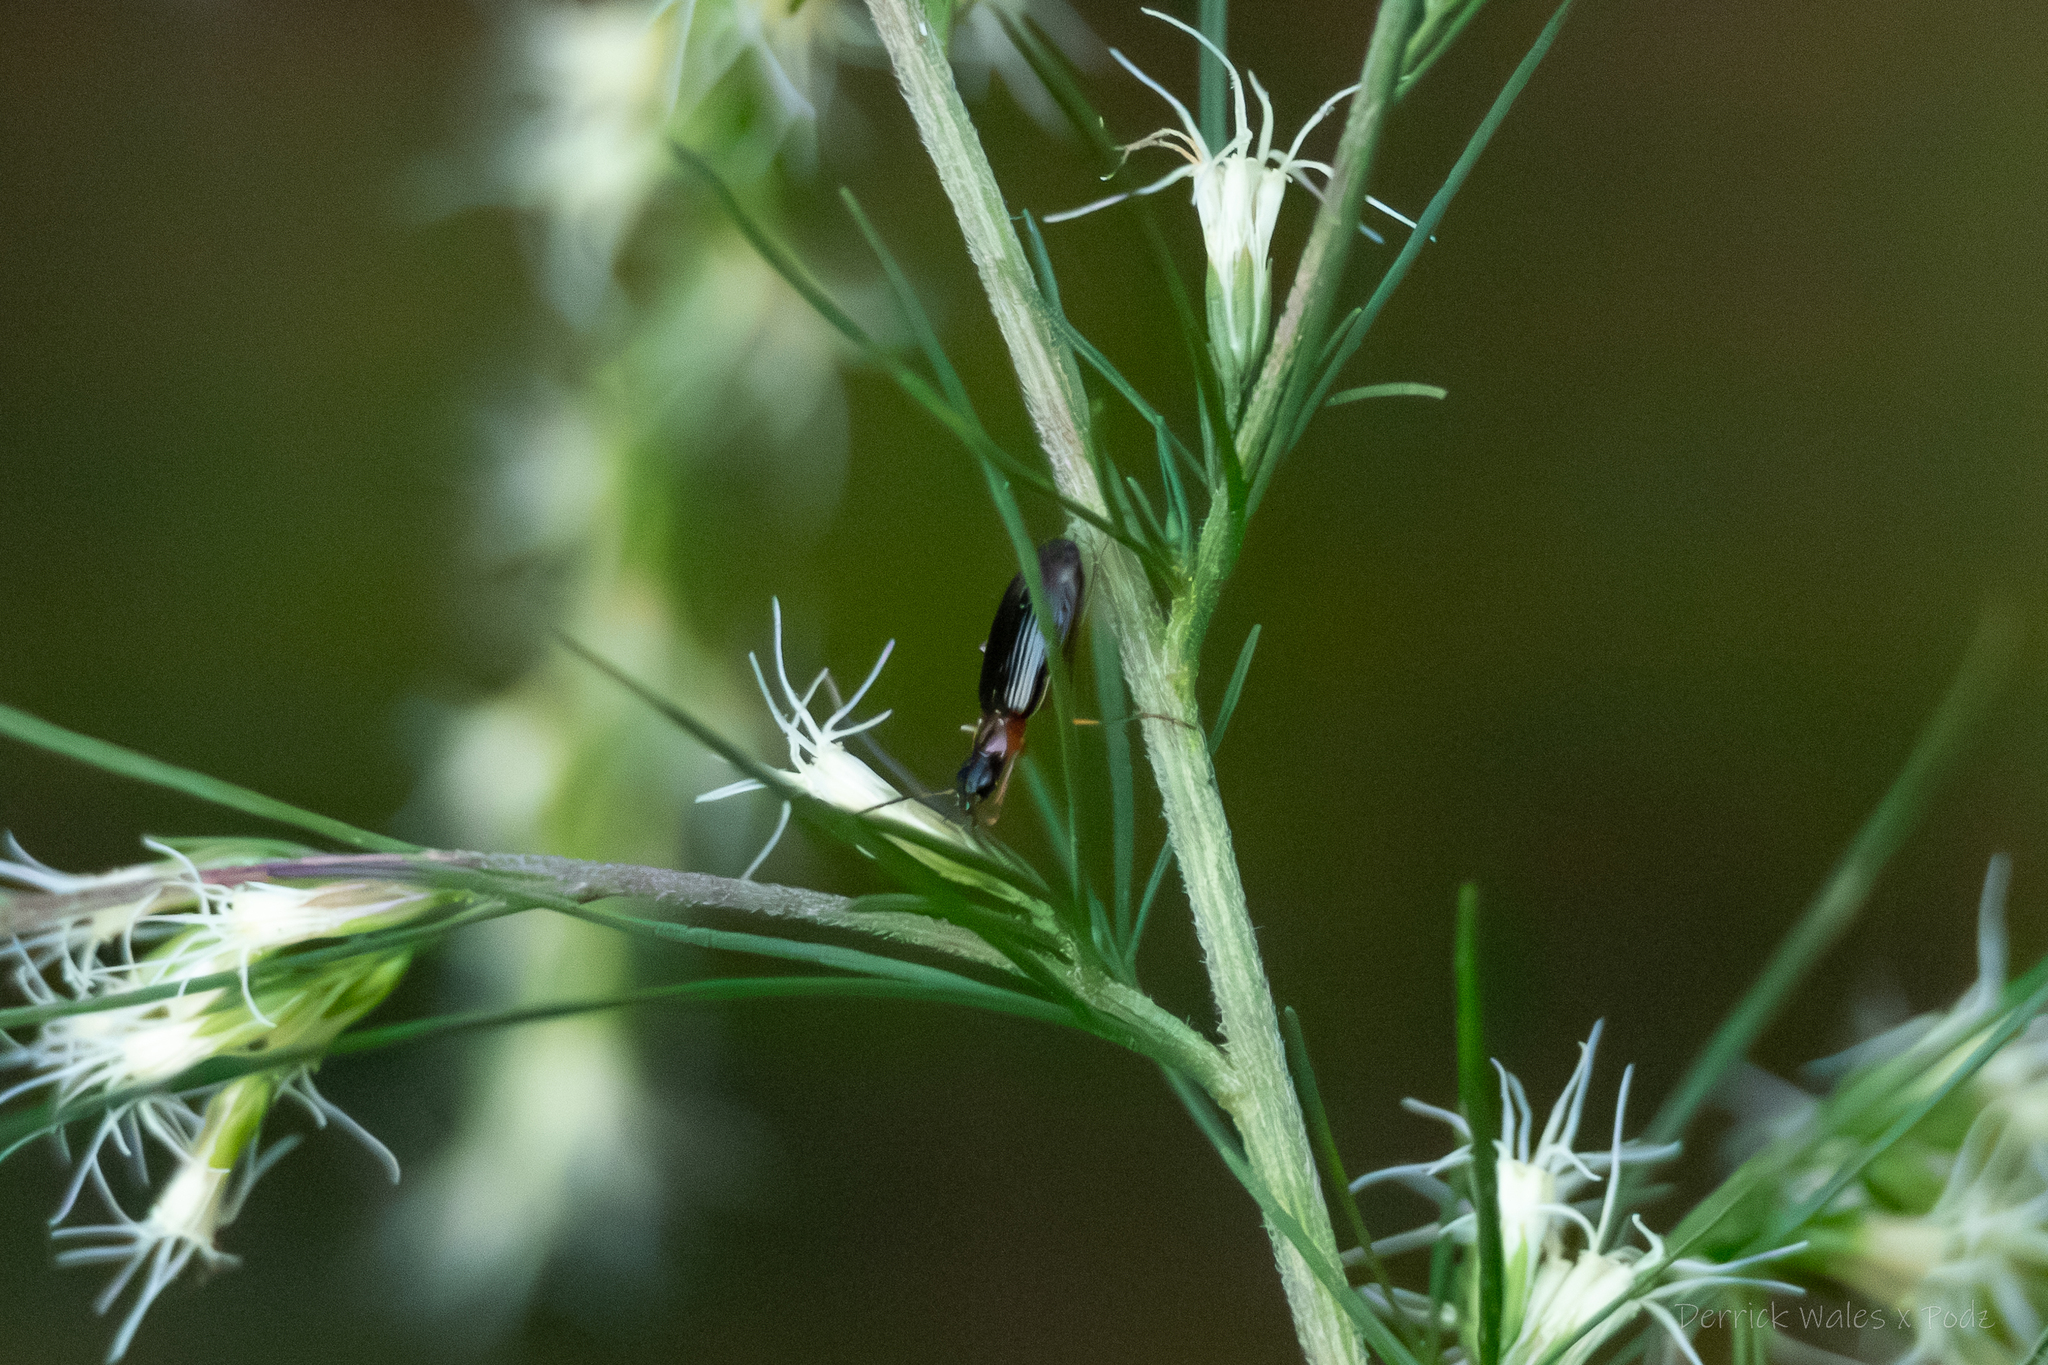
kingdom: Animalia
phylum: Arthropoda
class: Insecta
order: Coleoptera
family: Carabidae
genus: Lebia
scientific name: Lebia tricolor
